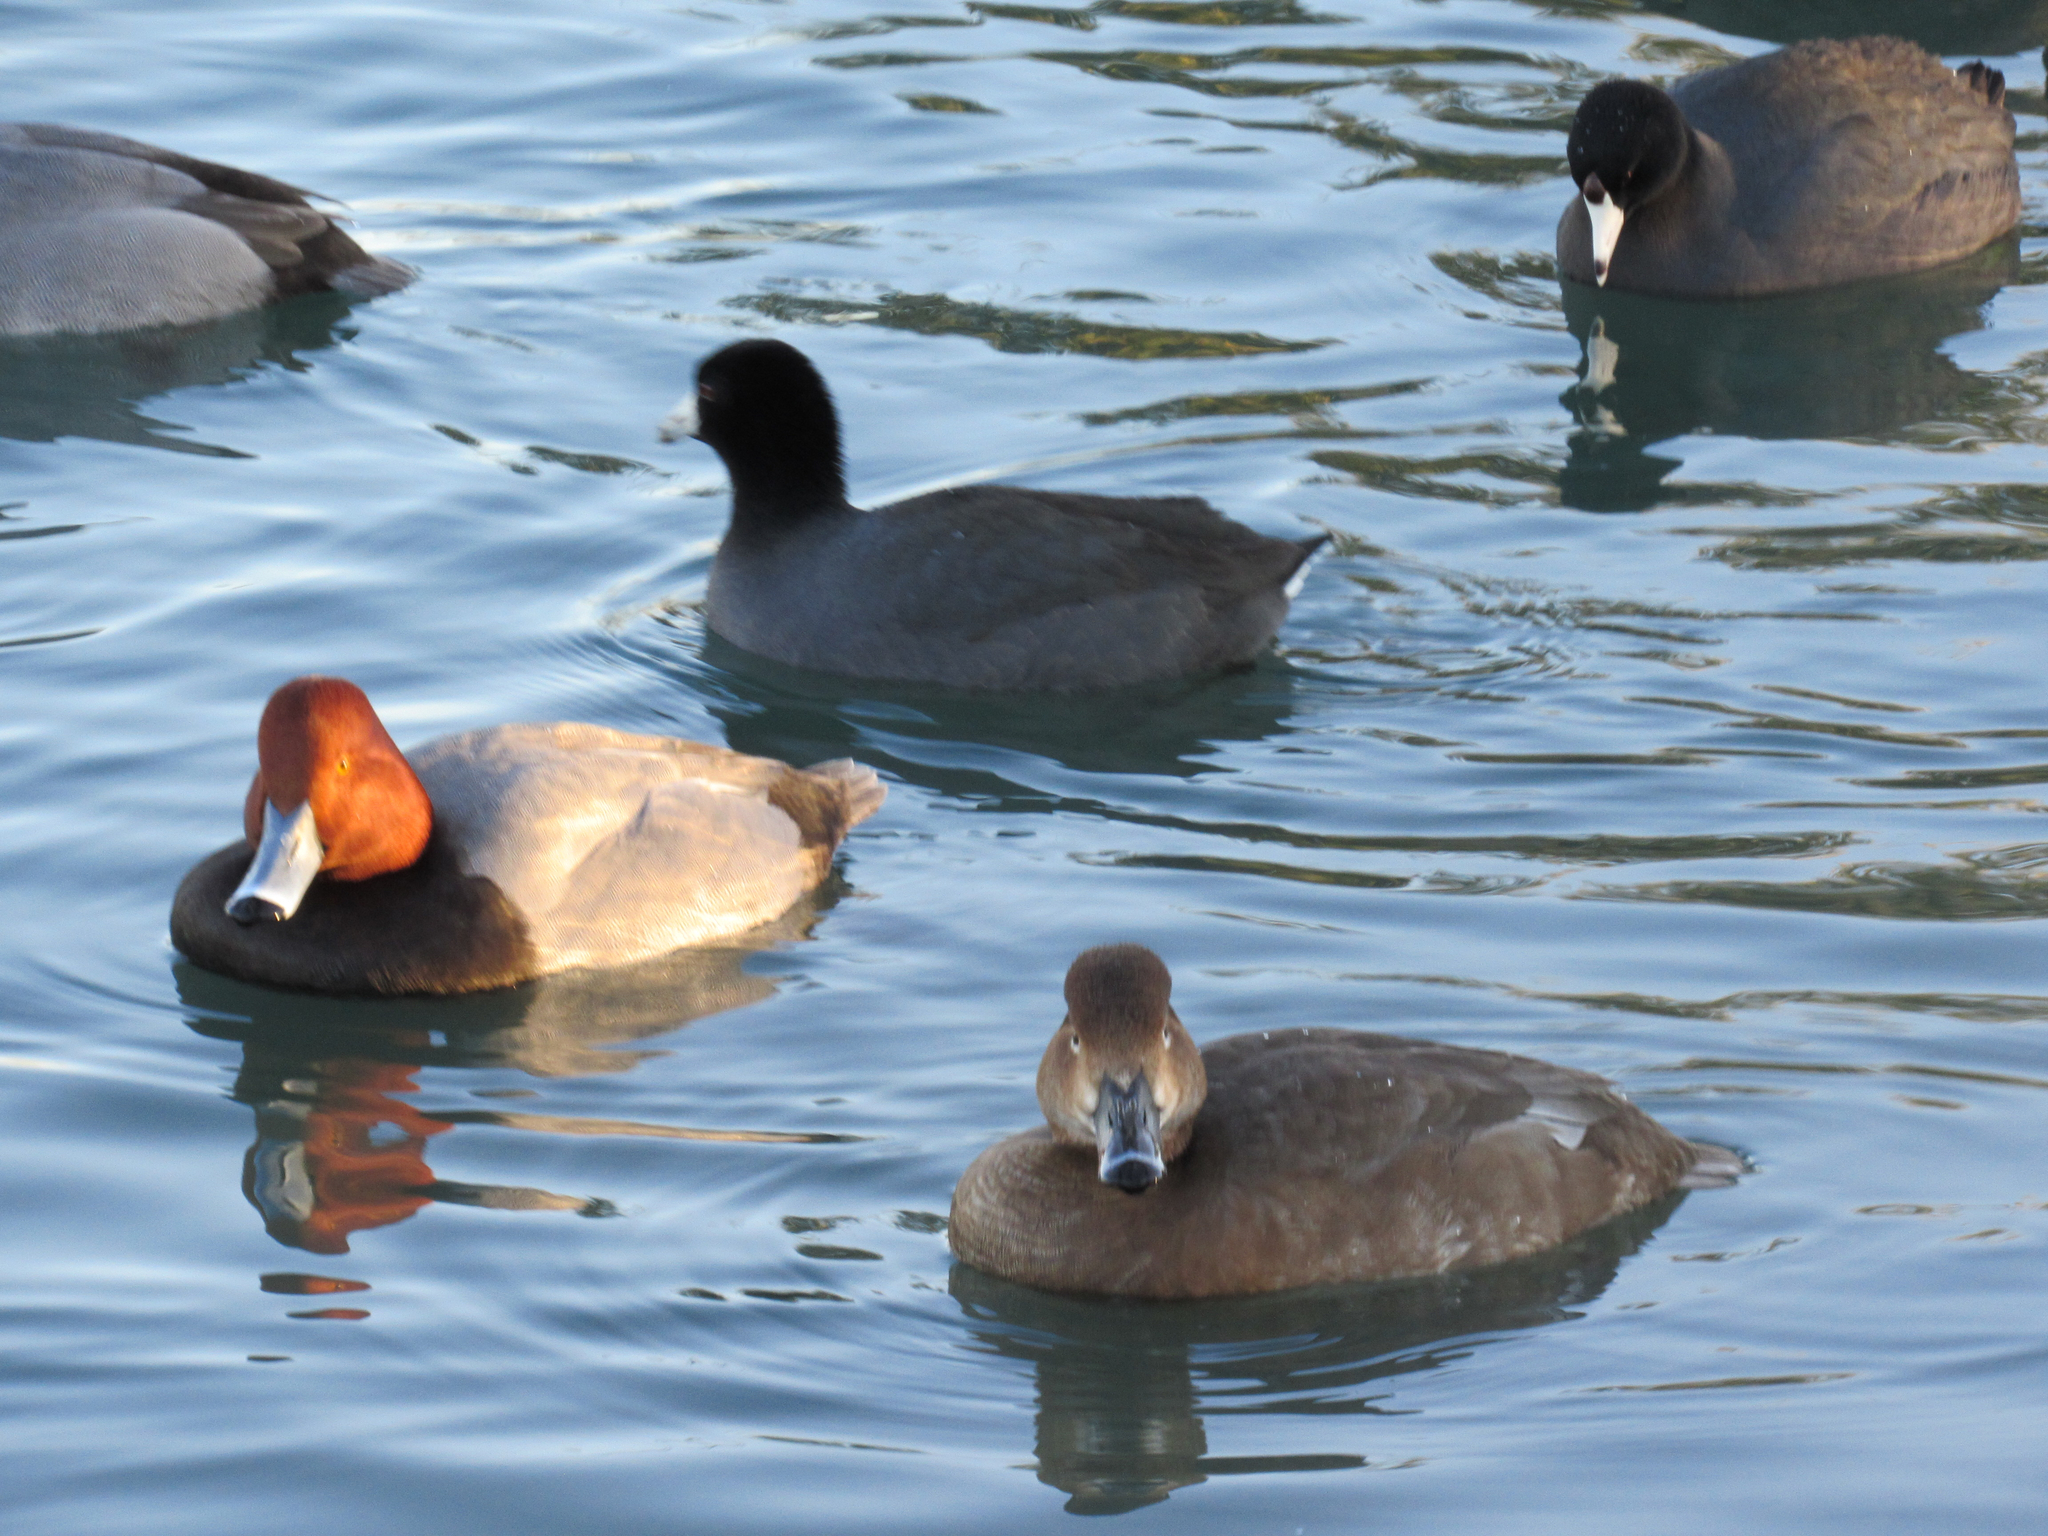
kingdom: Animalia
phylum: Chordata
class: Aves
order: Anseriformes
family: Anatidae
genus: Aythya
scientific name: Aythya americana
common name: Redhead
